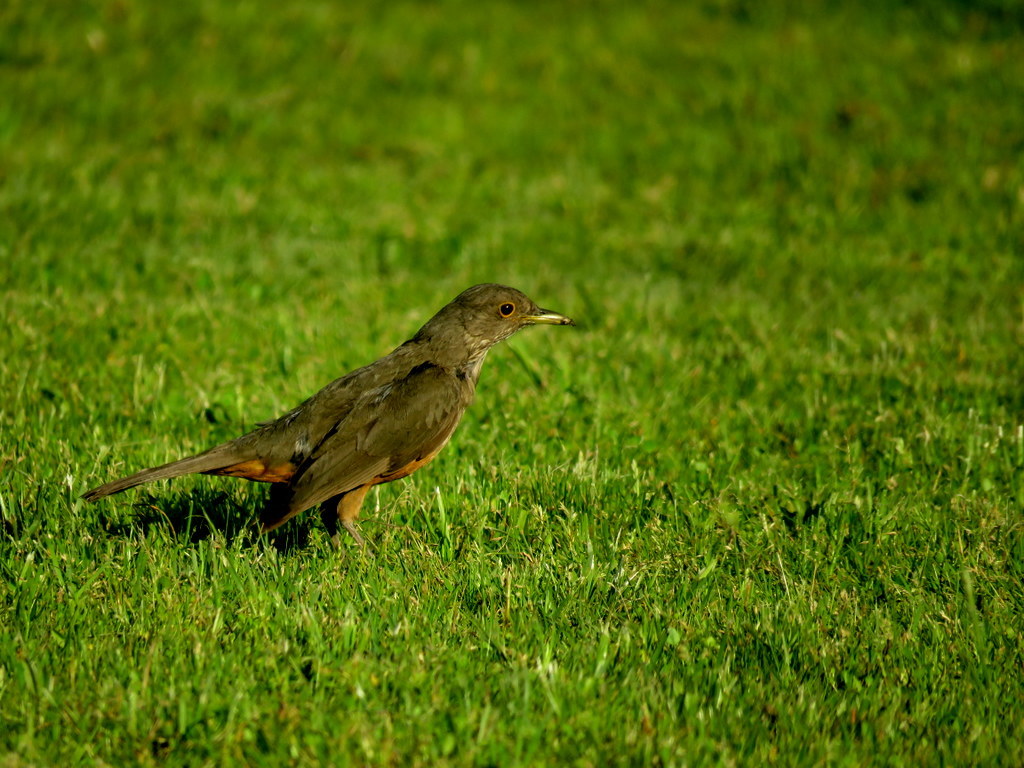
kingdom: Animalia
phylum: Chordata
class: Aves
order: Passeriformes
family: Turdidae
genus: Turdus
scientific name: Turdus rufiventris
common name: Rufous-bellied thrush
